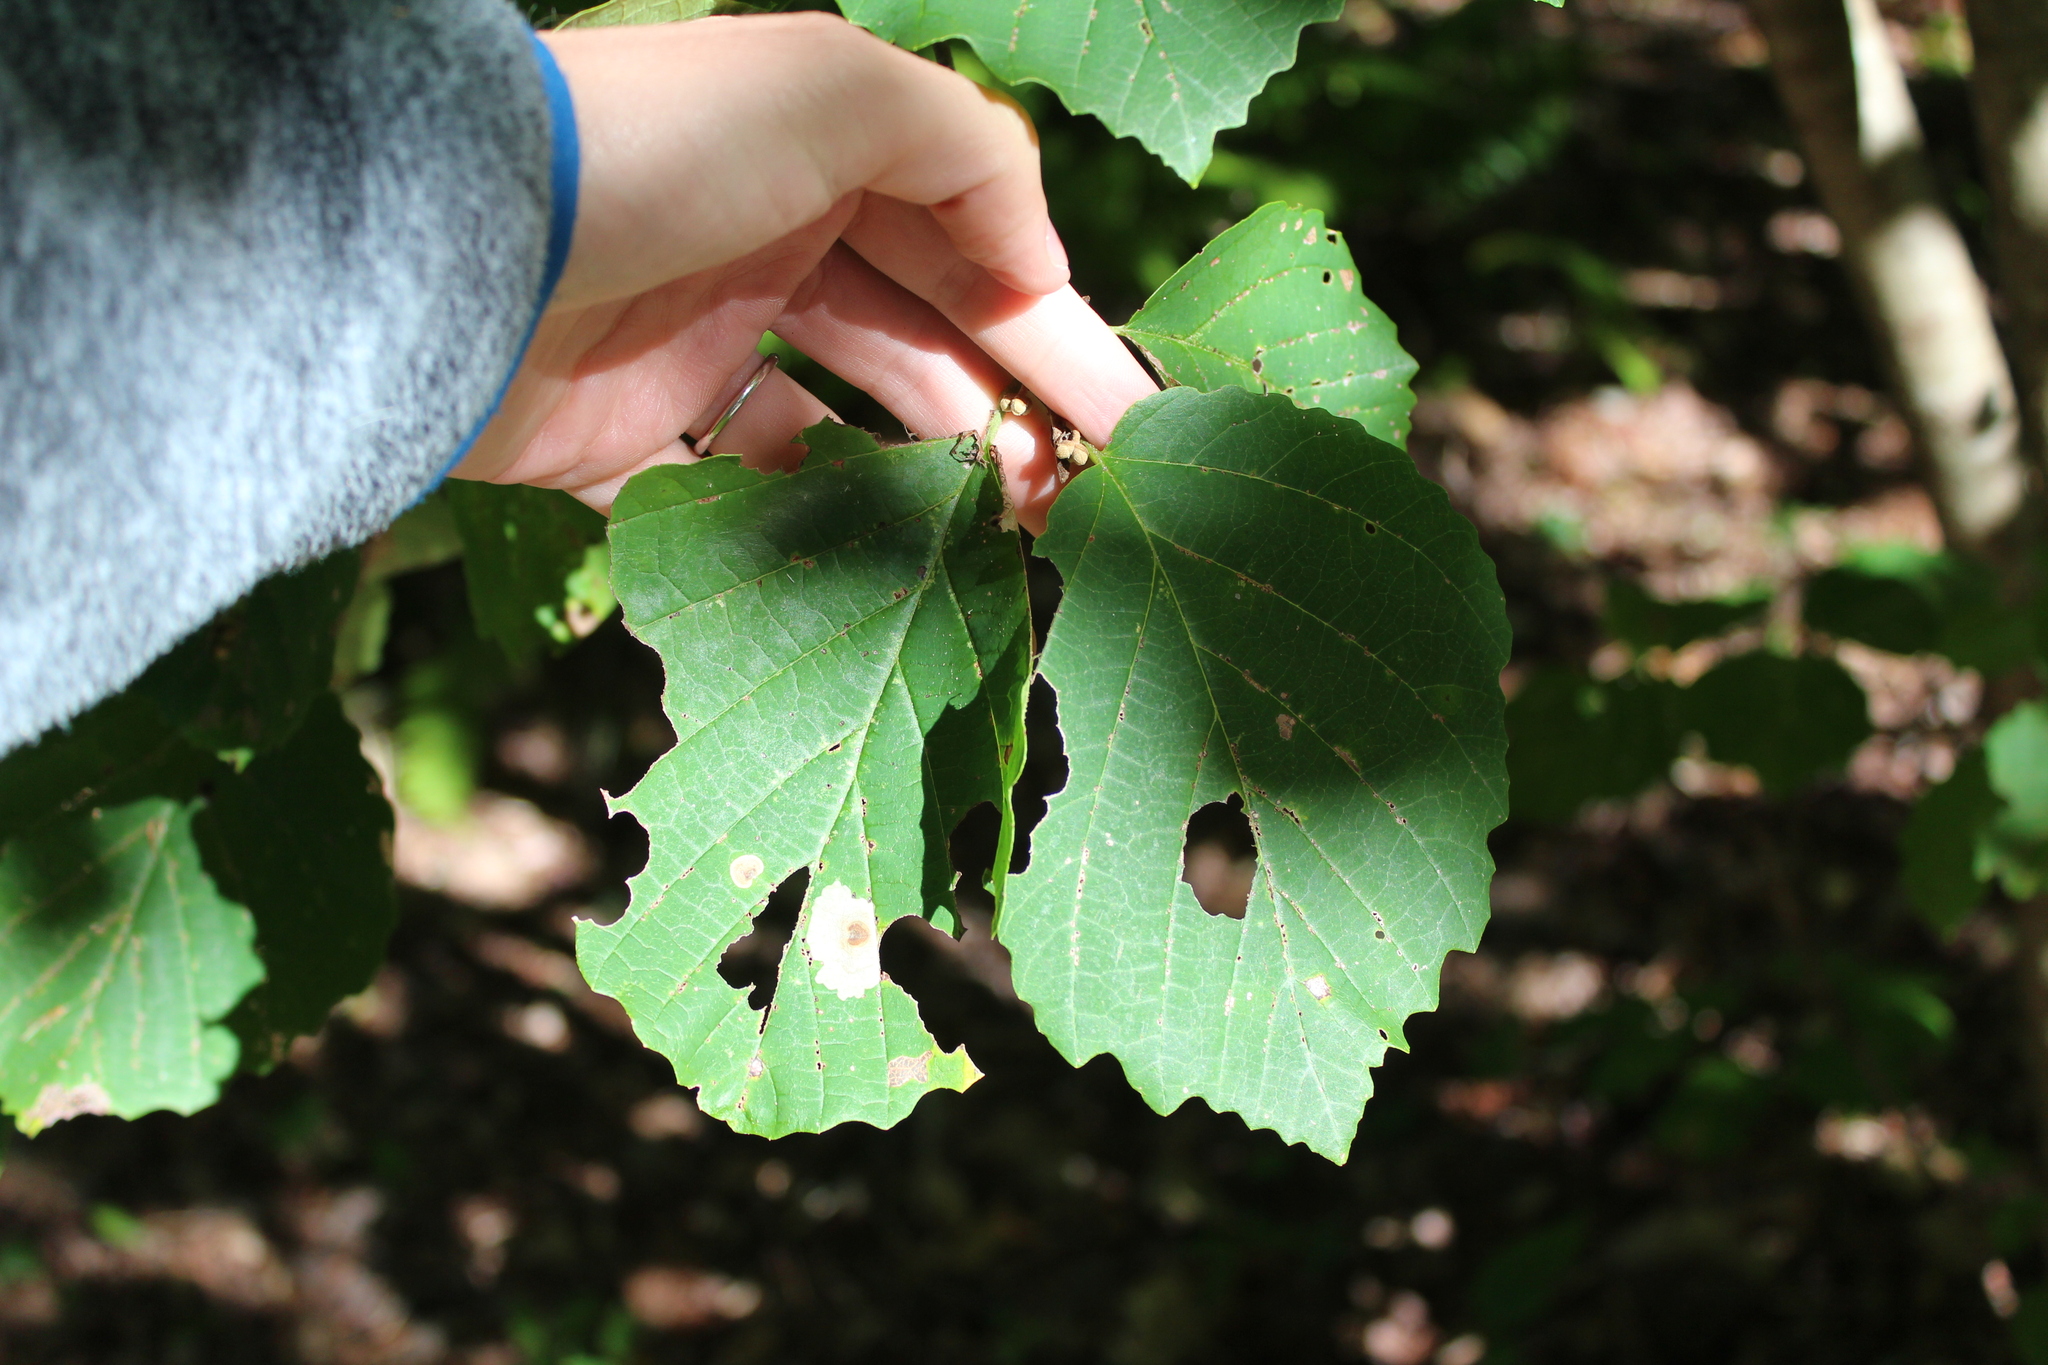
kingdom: Plantae
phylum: Tracheophyta
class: Magnoliopsida
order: Saxifragales
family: Hamamelidaceae
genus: Hamamelis
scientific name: Hamamelis virginiana
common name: Witch-hazel
